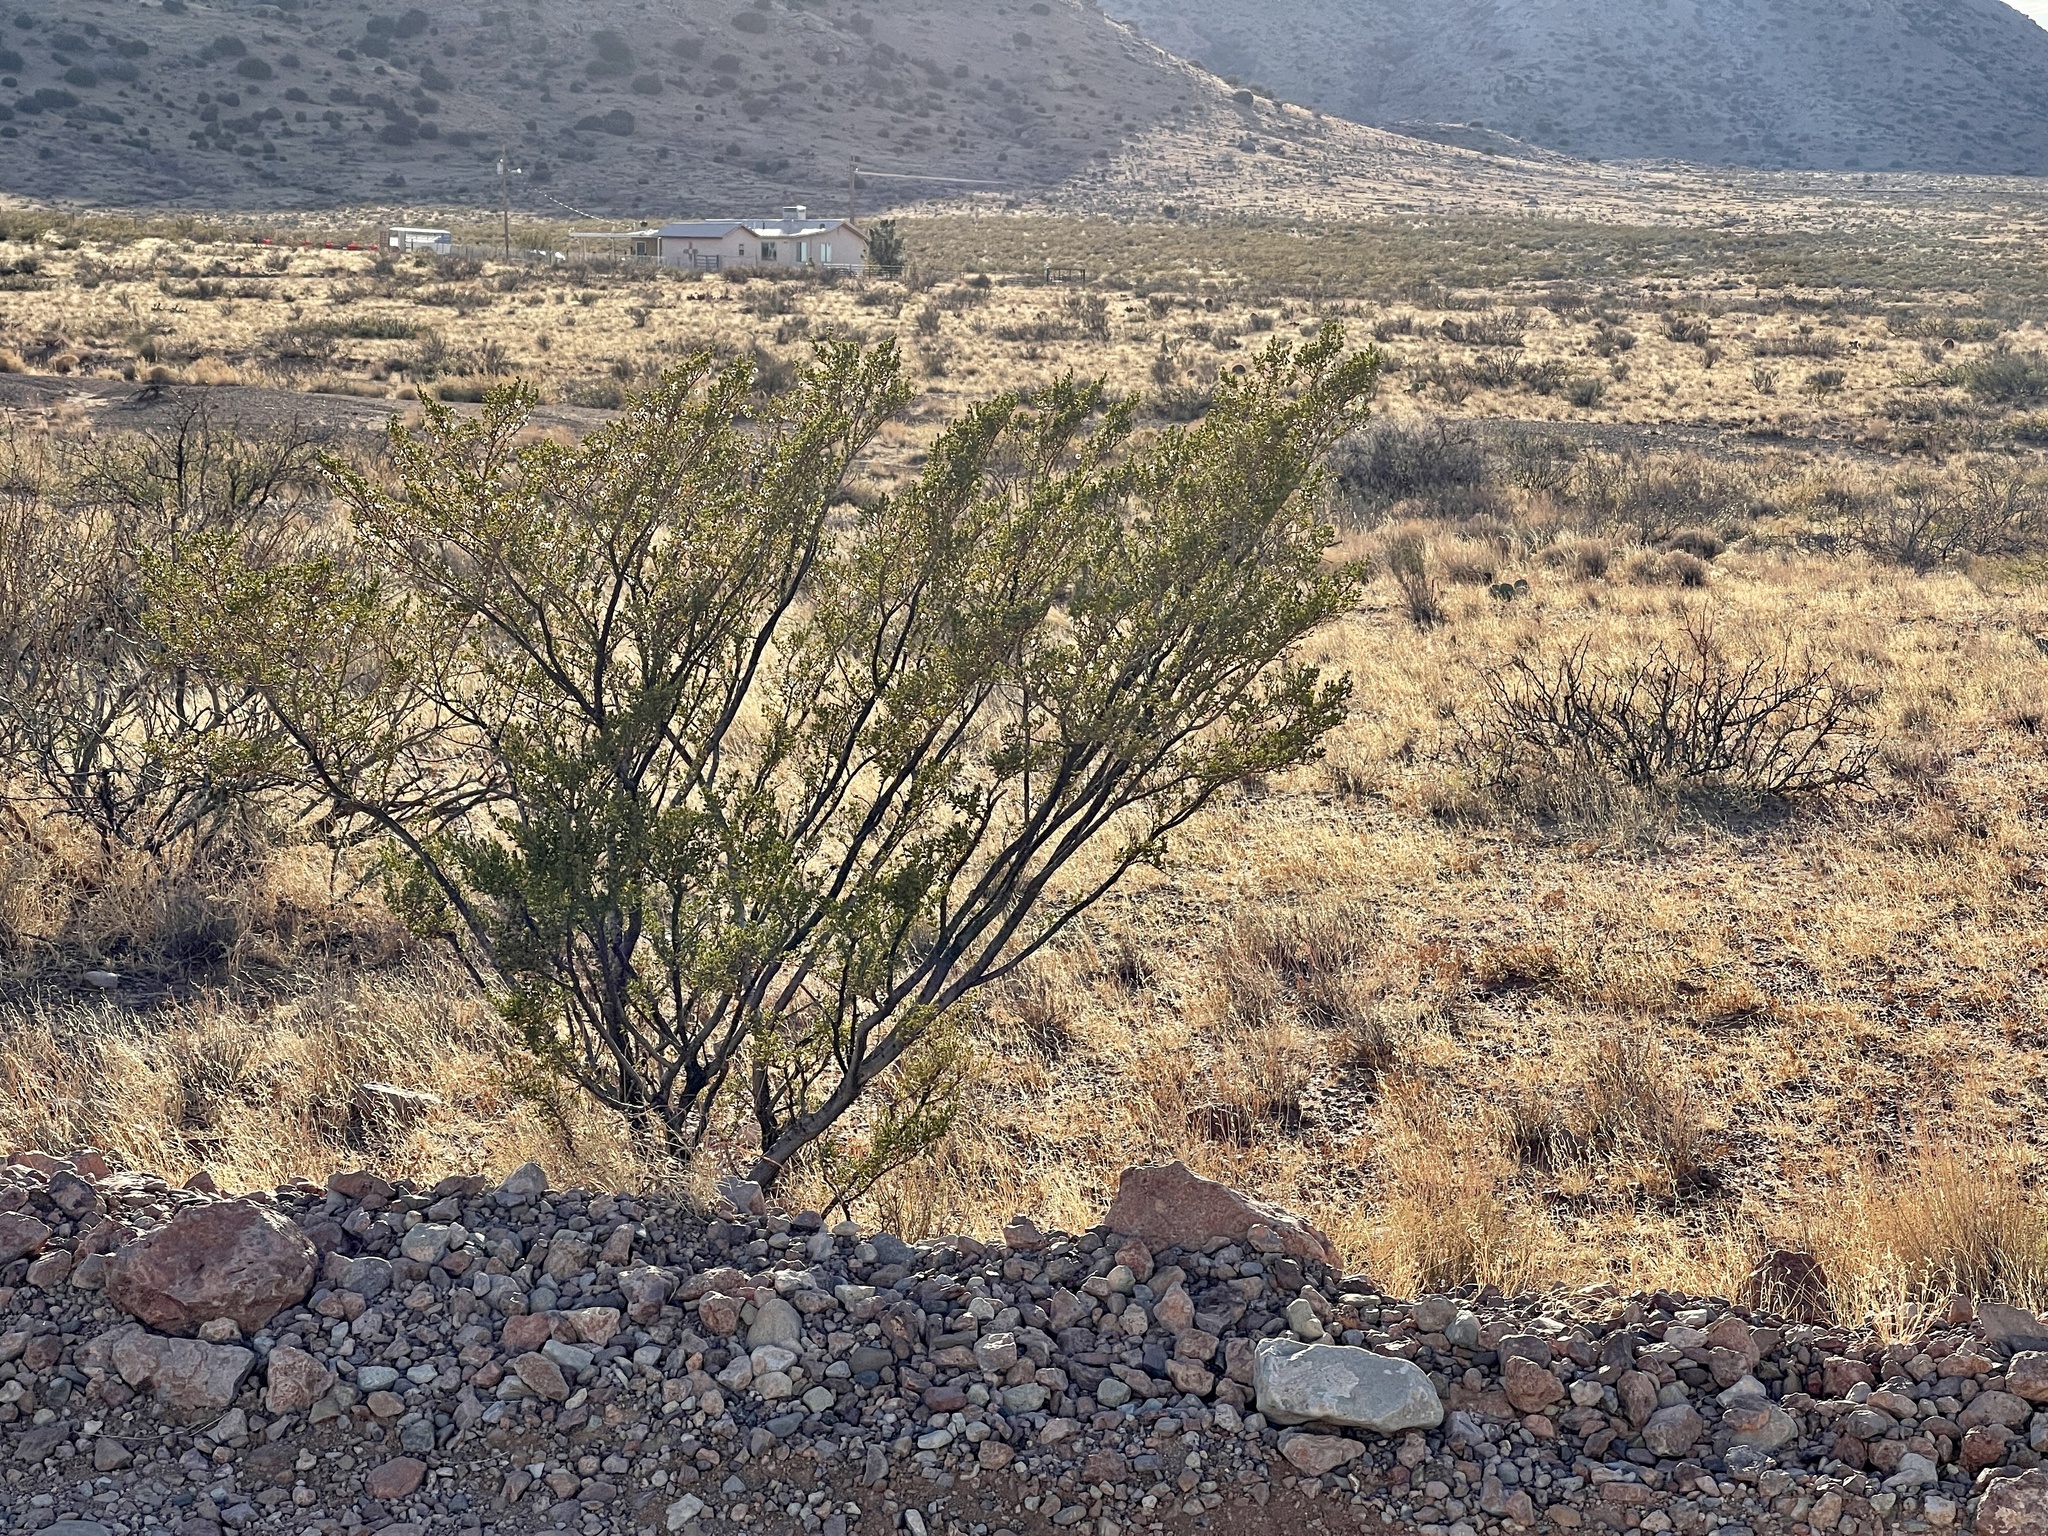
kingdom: Plantae
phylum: Tracheophyta
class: Magnoliopsida
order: Zygophyllales
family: Zygophyllaceae
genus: Larrea
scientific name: Larrea tridentata
